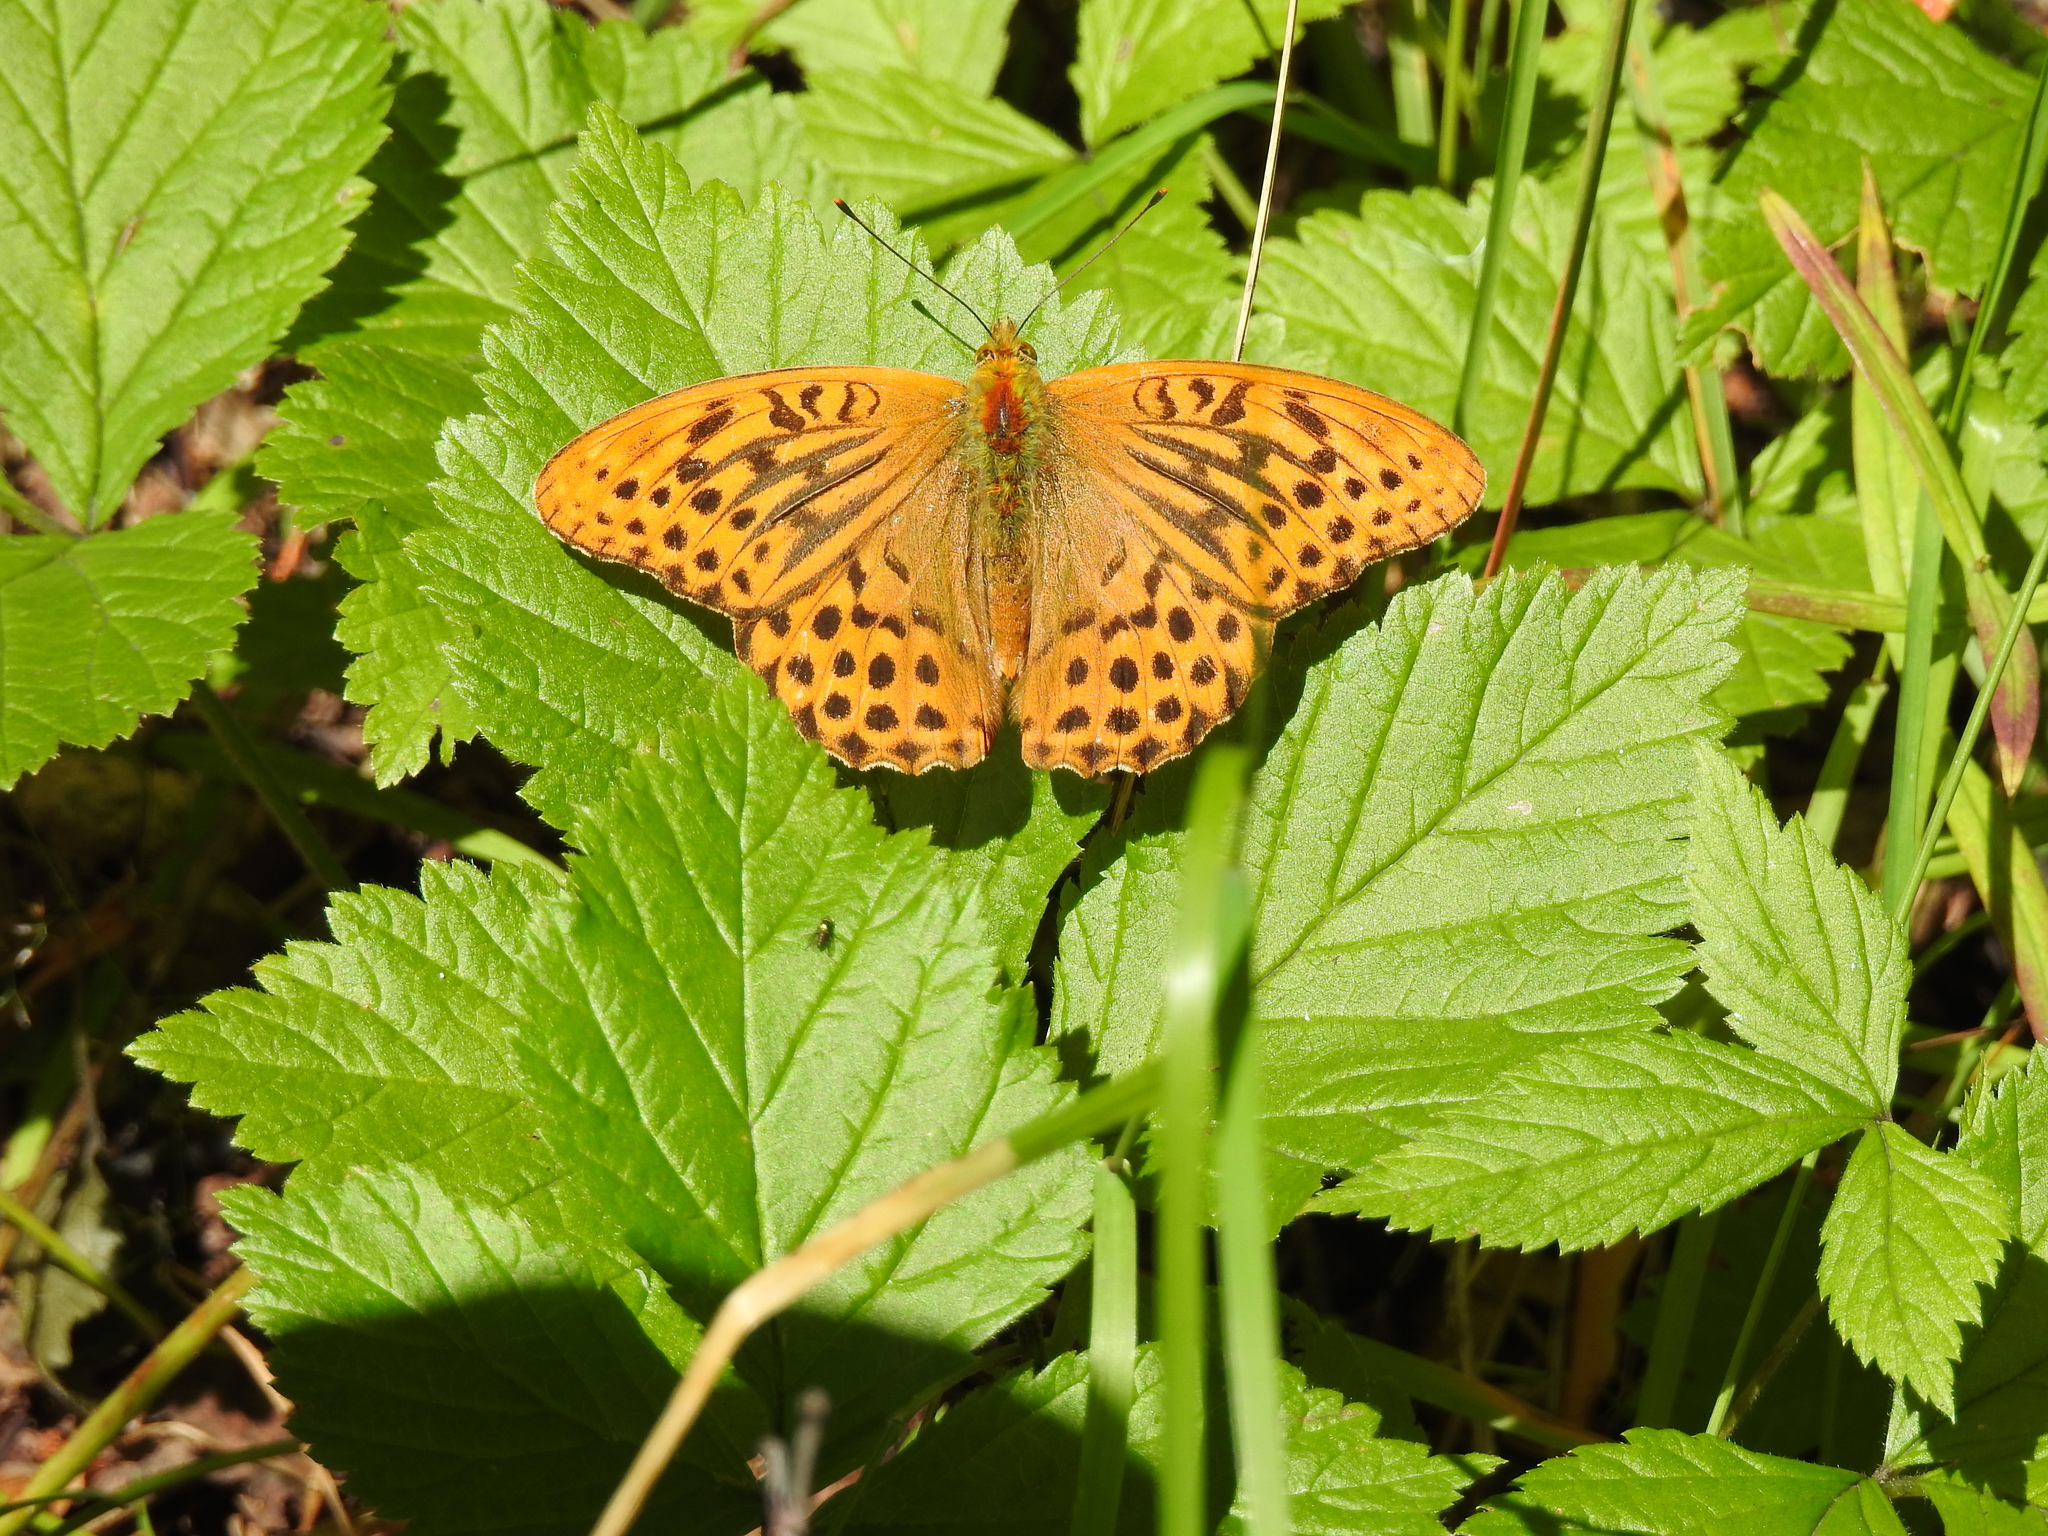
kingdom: Animalia
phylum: Arthropoda
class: Insecta
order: Lepidoptera
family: Nymphalidae
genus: Argynnis
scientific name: Argynnis paphia
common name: Silver-washed fritillary
